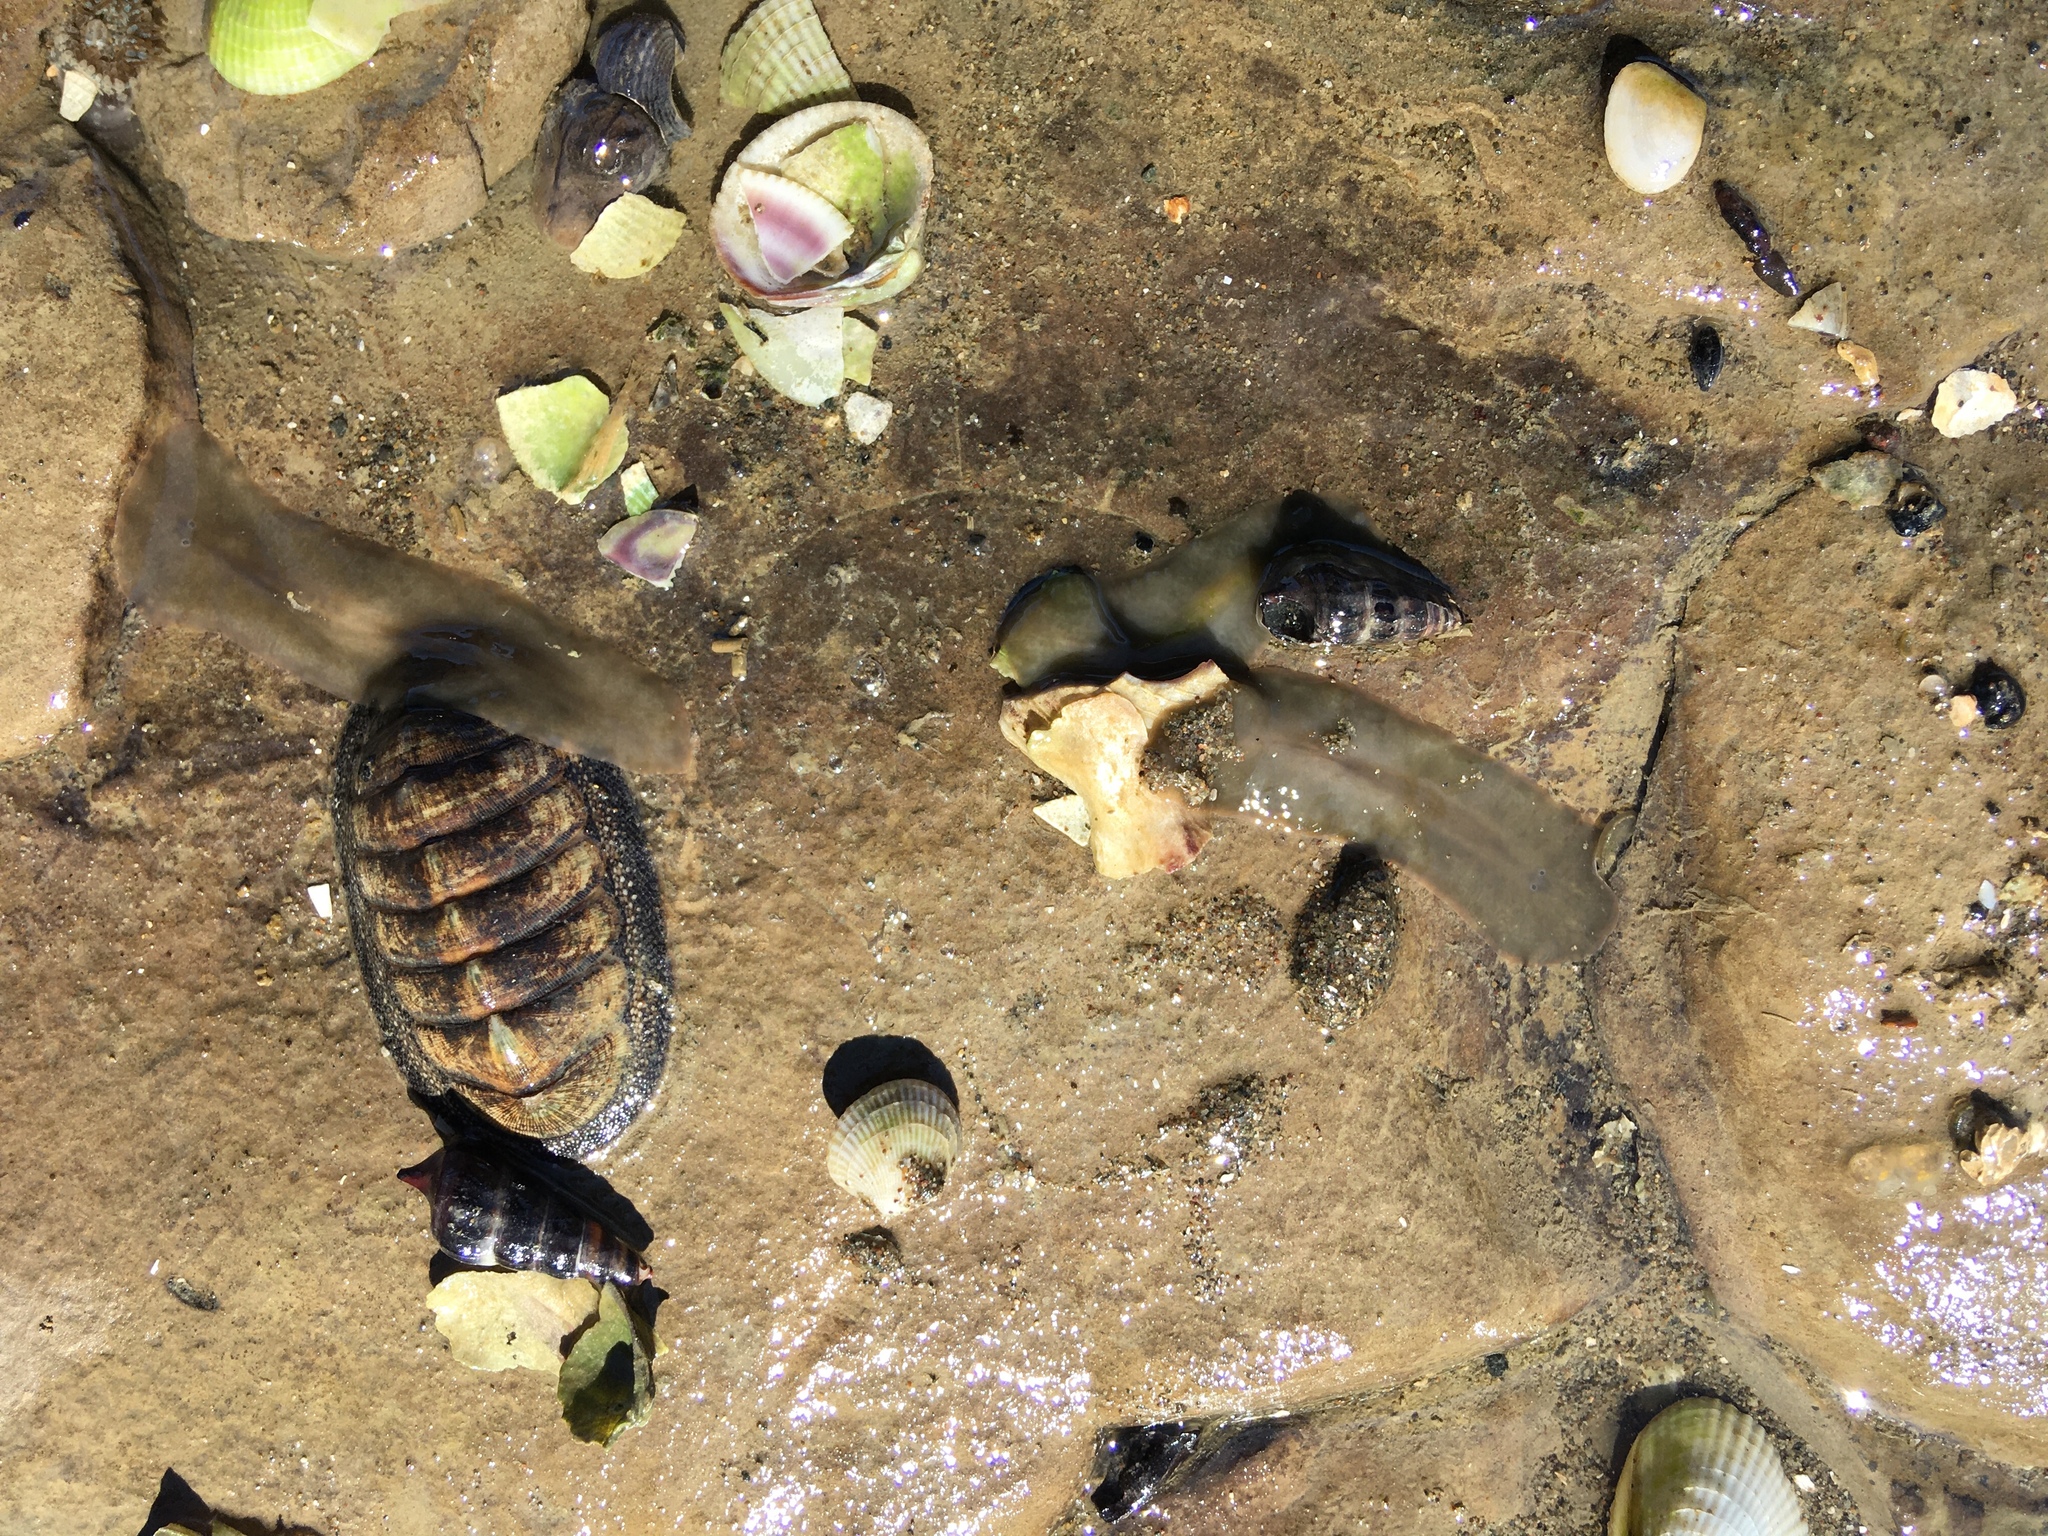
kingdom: Animalia
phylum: Mollusca
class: Gastropoda
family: Batillariidae
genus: Zeacumantus
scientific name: Zeacumantus subcarinatus
